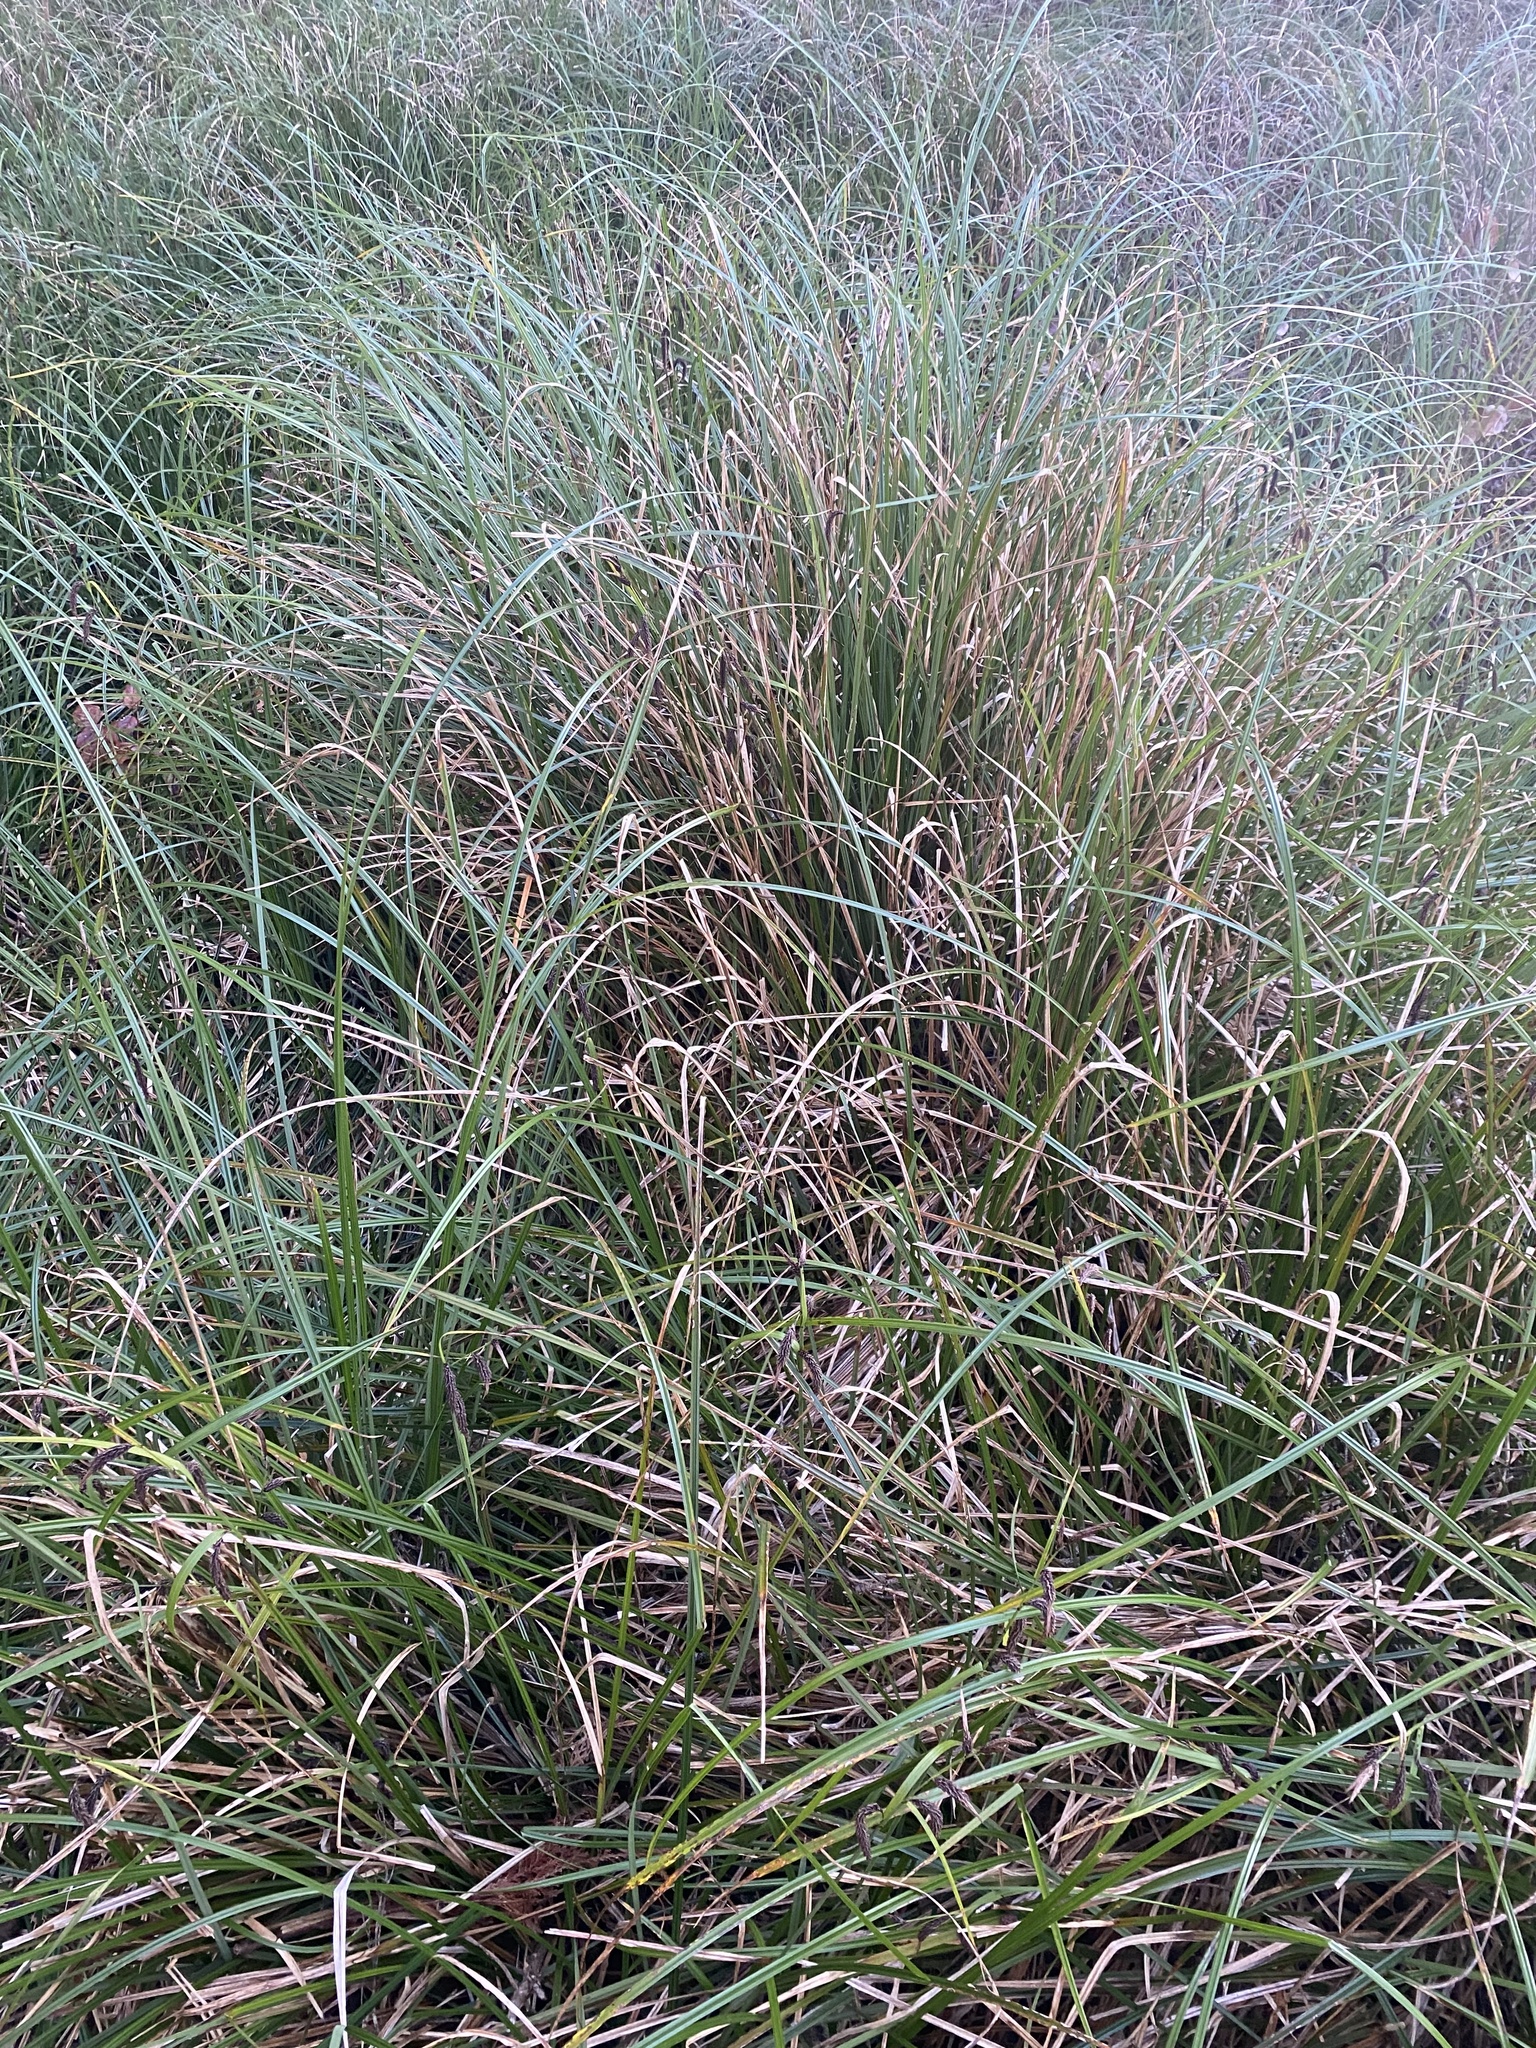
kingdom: Plantae
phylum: Tracheophyta
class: Liliopsida
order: Poales
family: Cyperaceae
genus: Carex
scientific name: Carex obnupta
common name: Slough sedge
